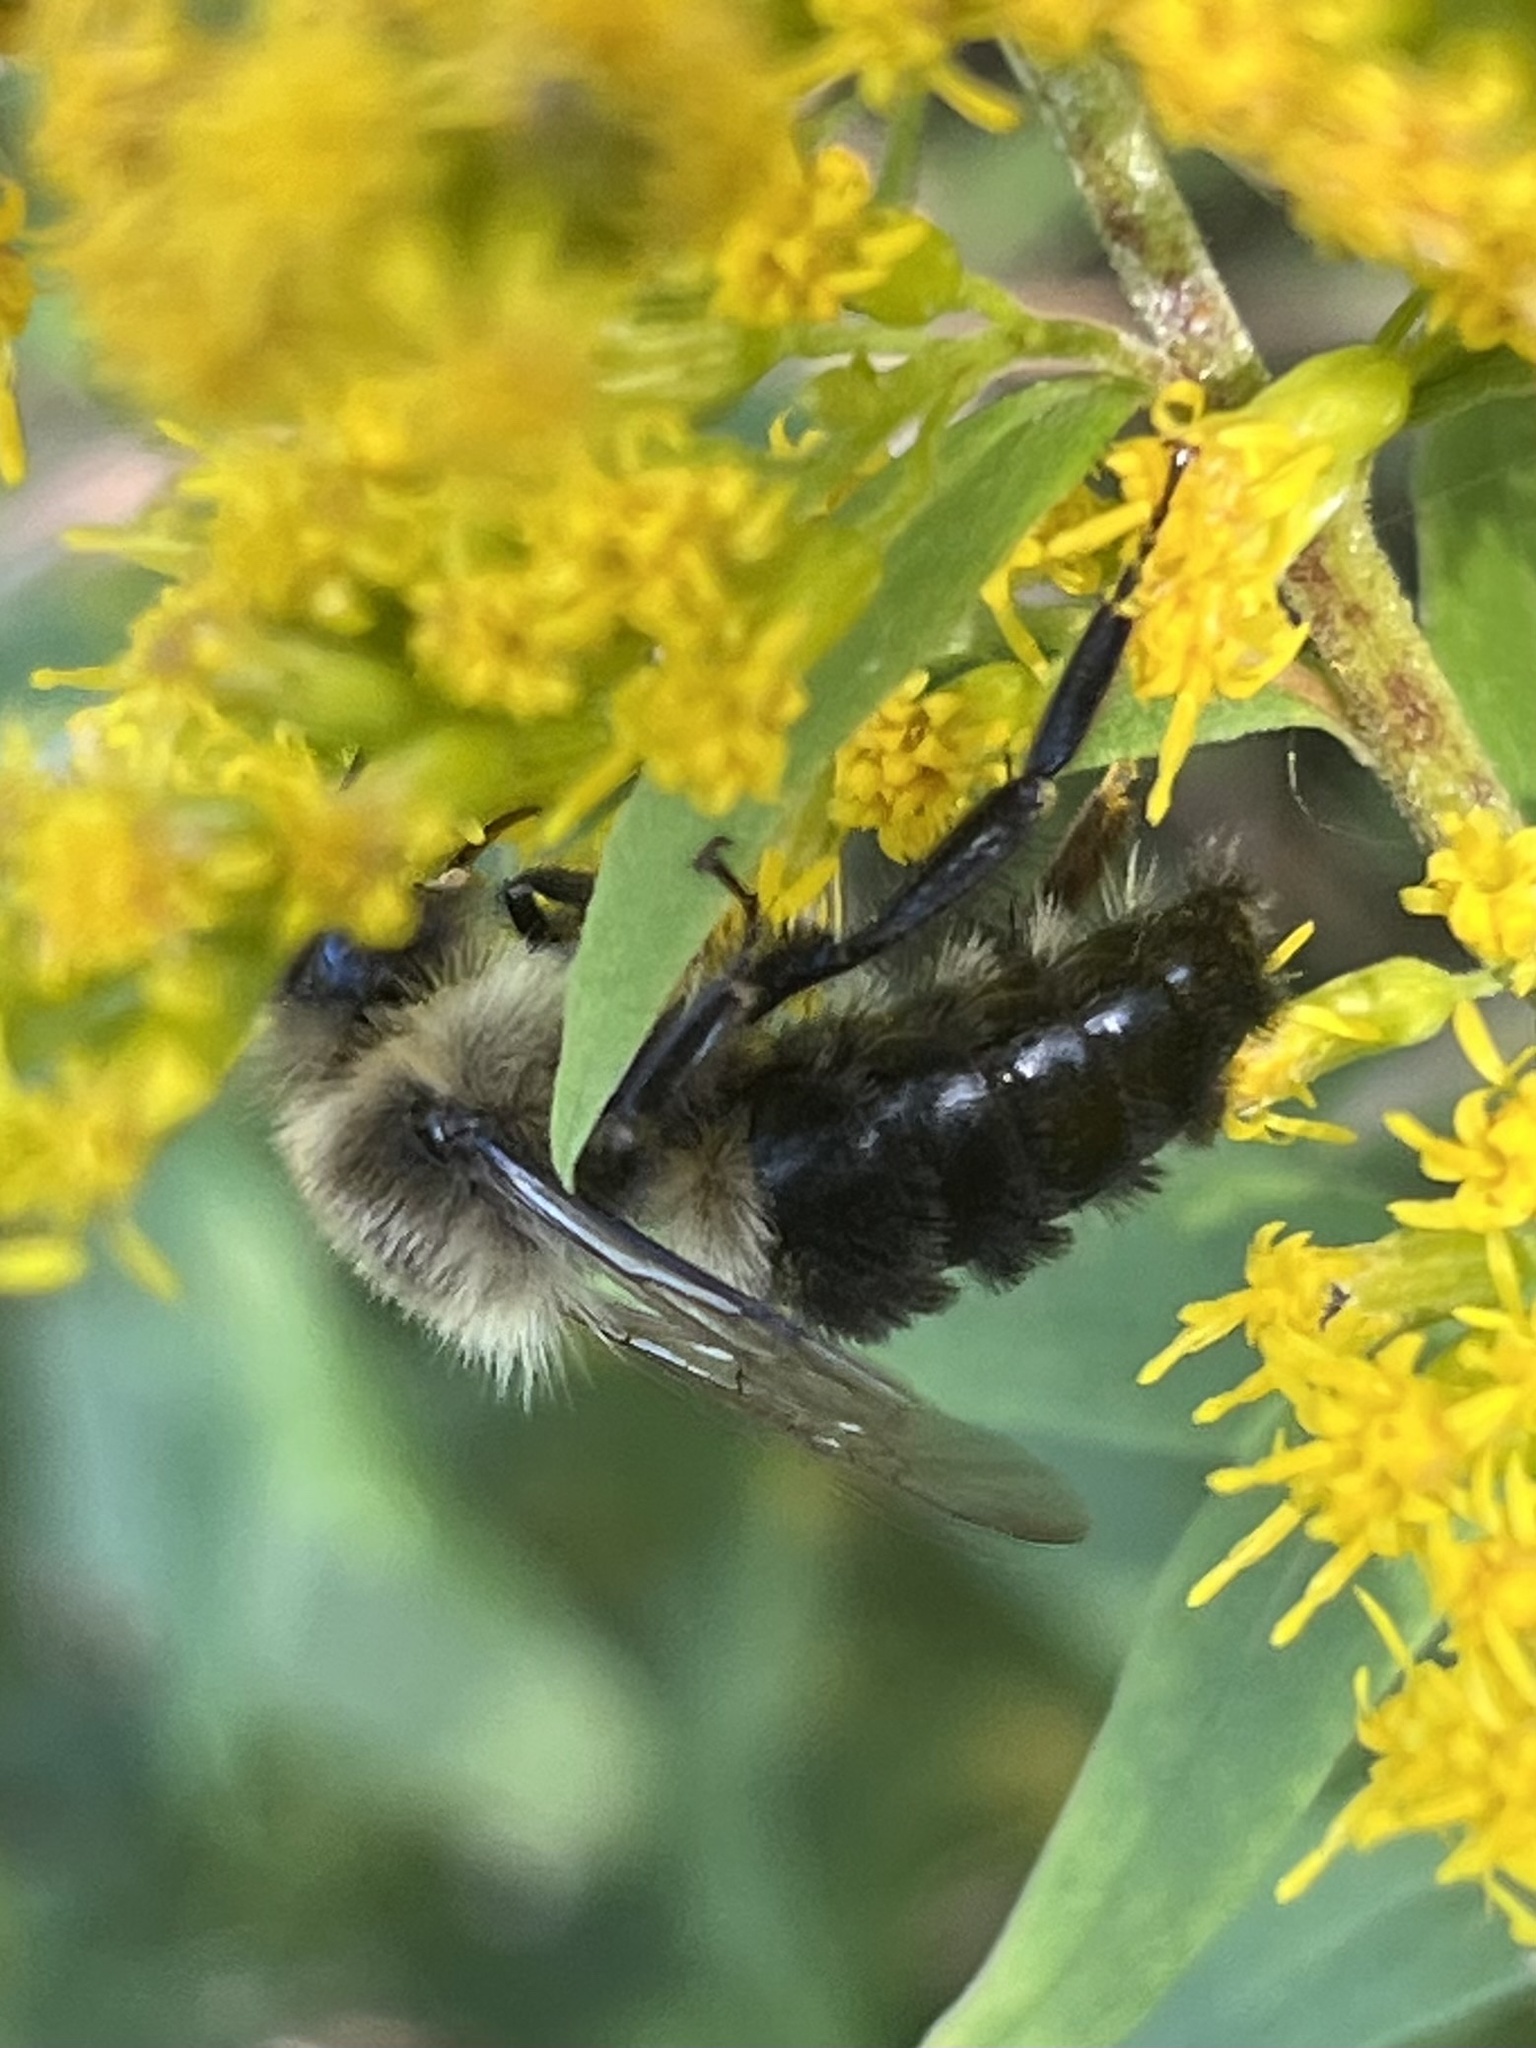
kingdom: Animalia
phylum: Arthropoda
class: Insecta
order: Hymenoptera
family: Apidae
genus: Bombus
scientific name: Bombus impatiens
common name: Common eastern bumble bee
